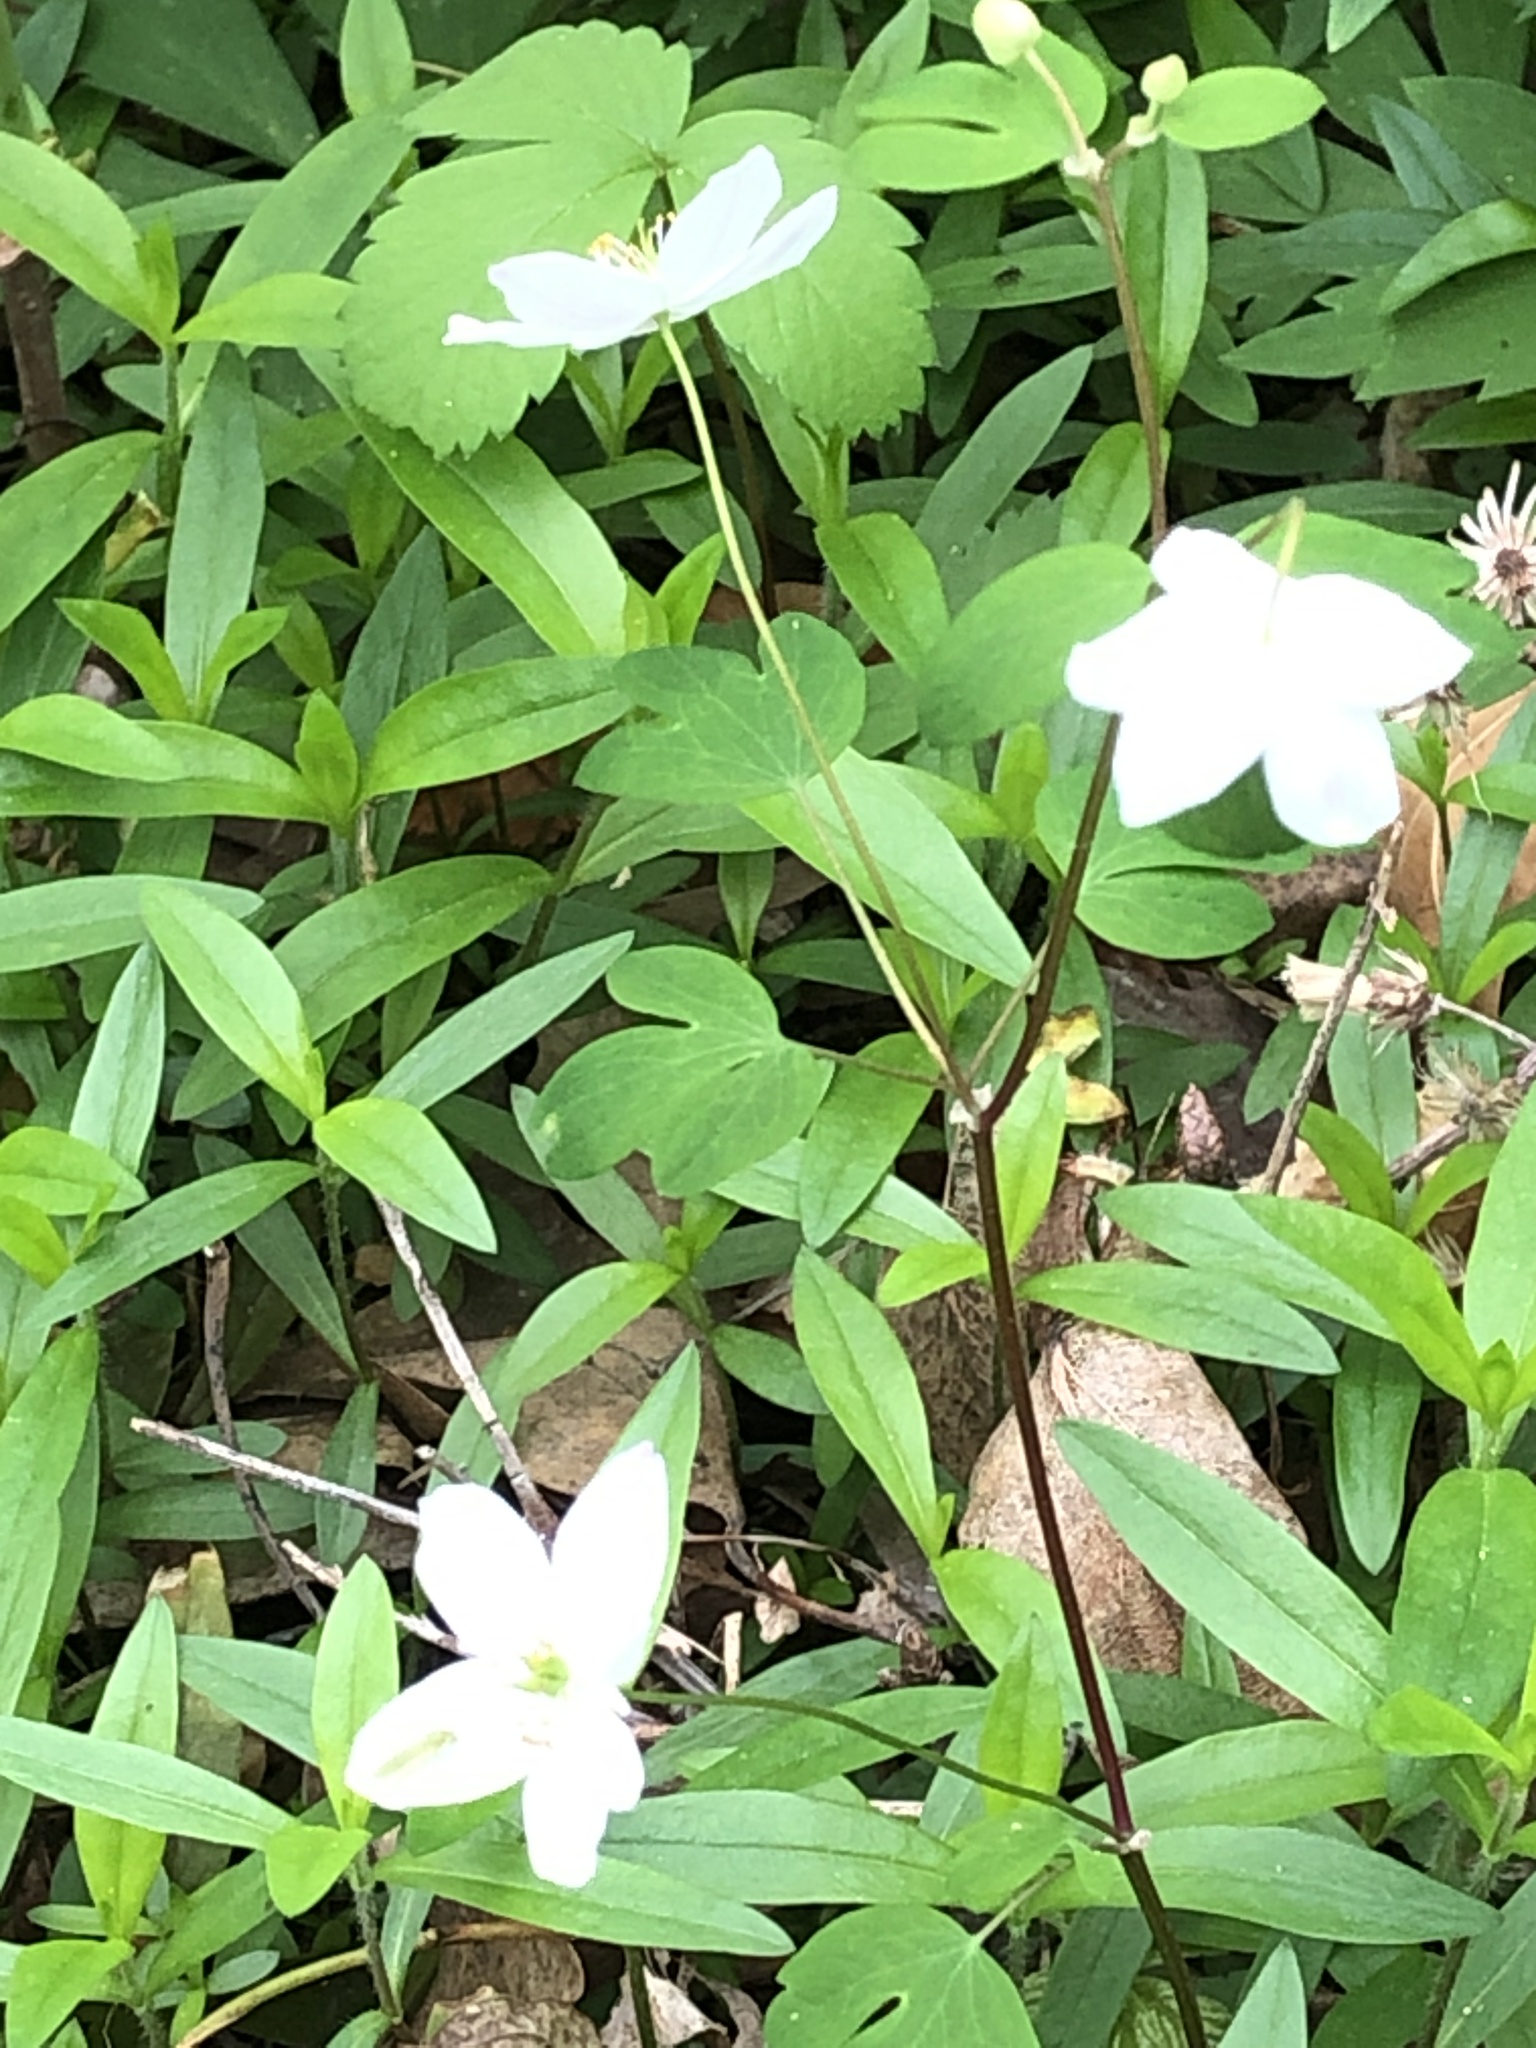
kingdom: Plantae
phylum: Tracheophyta
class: Magnoliopsida
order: Ranunculales
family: Ranunculaceae
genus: Enemion
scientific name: Enemion biternatum
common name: Eastern false rue-anemone
